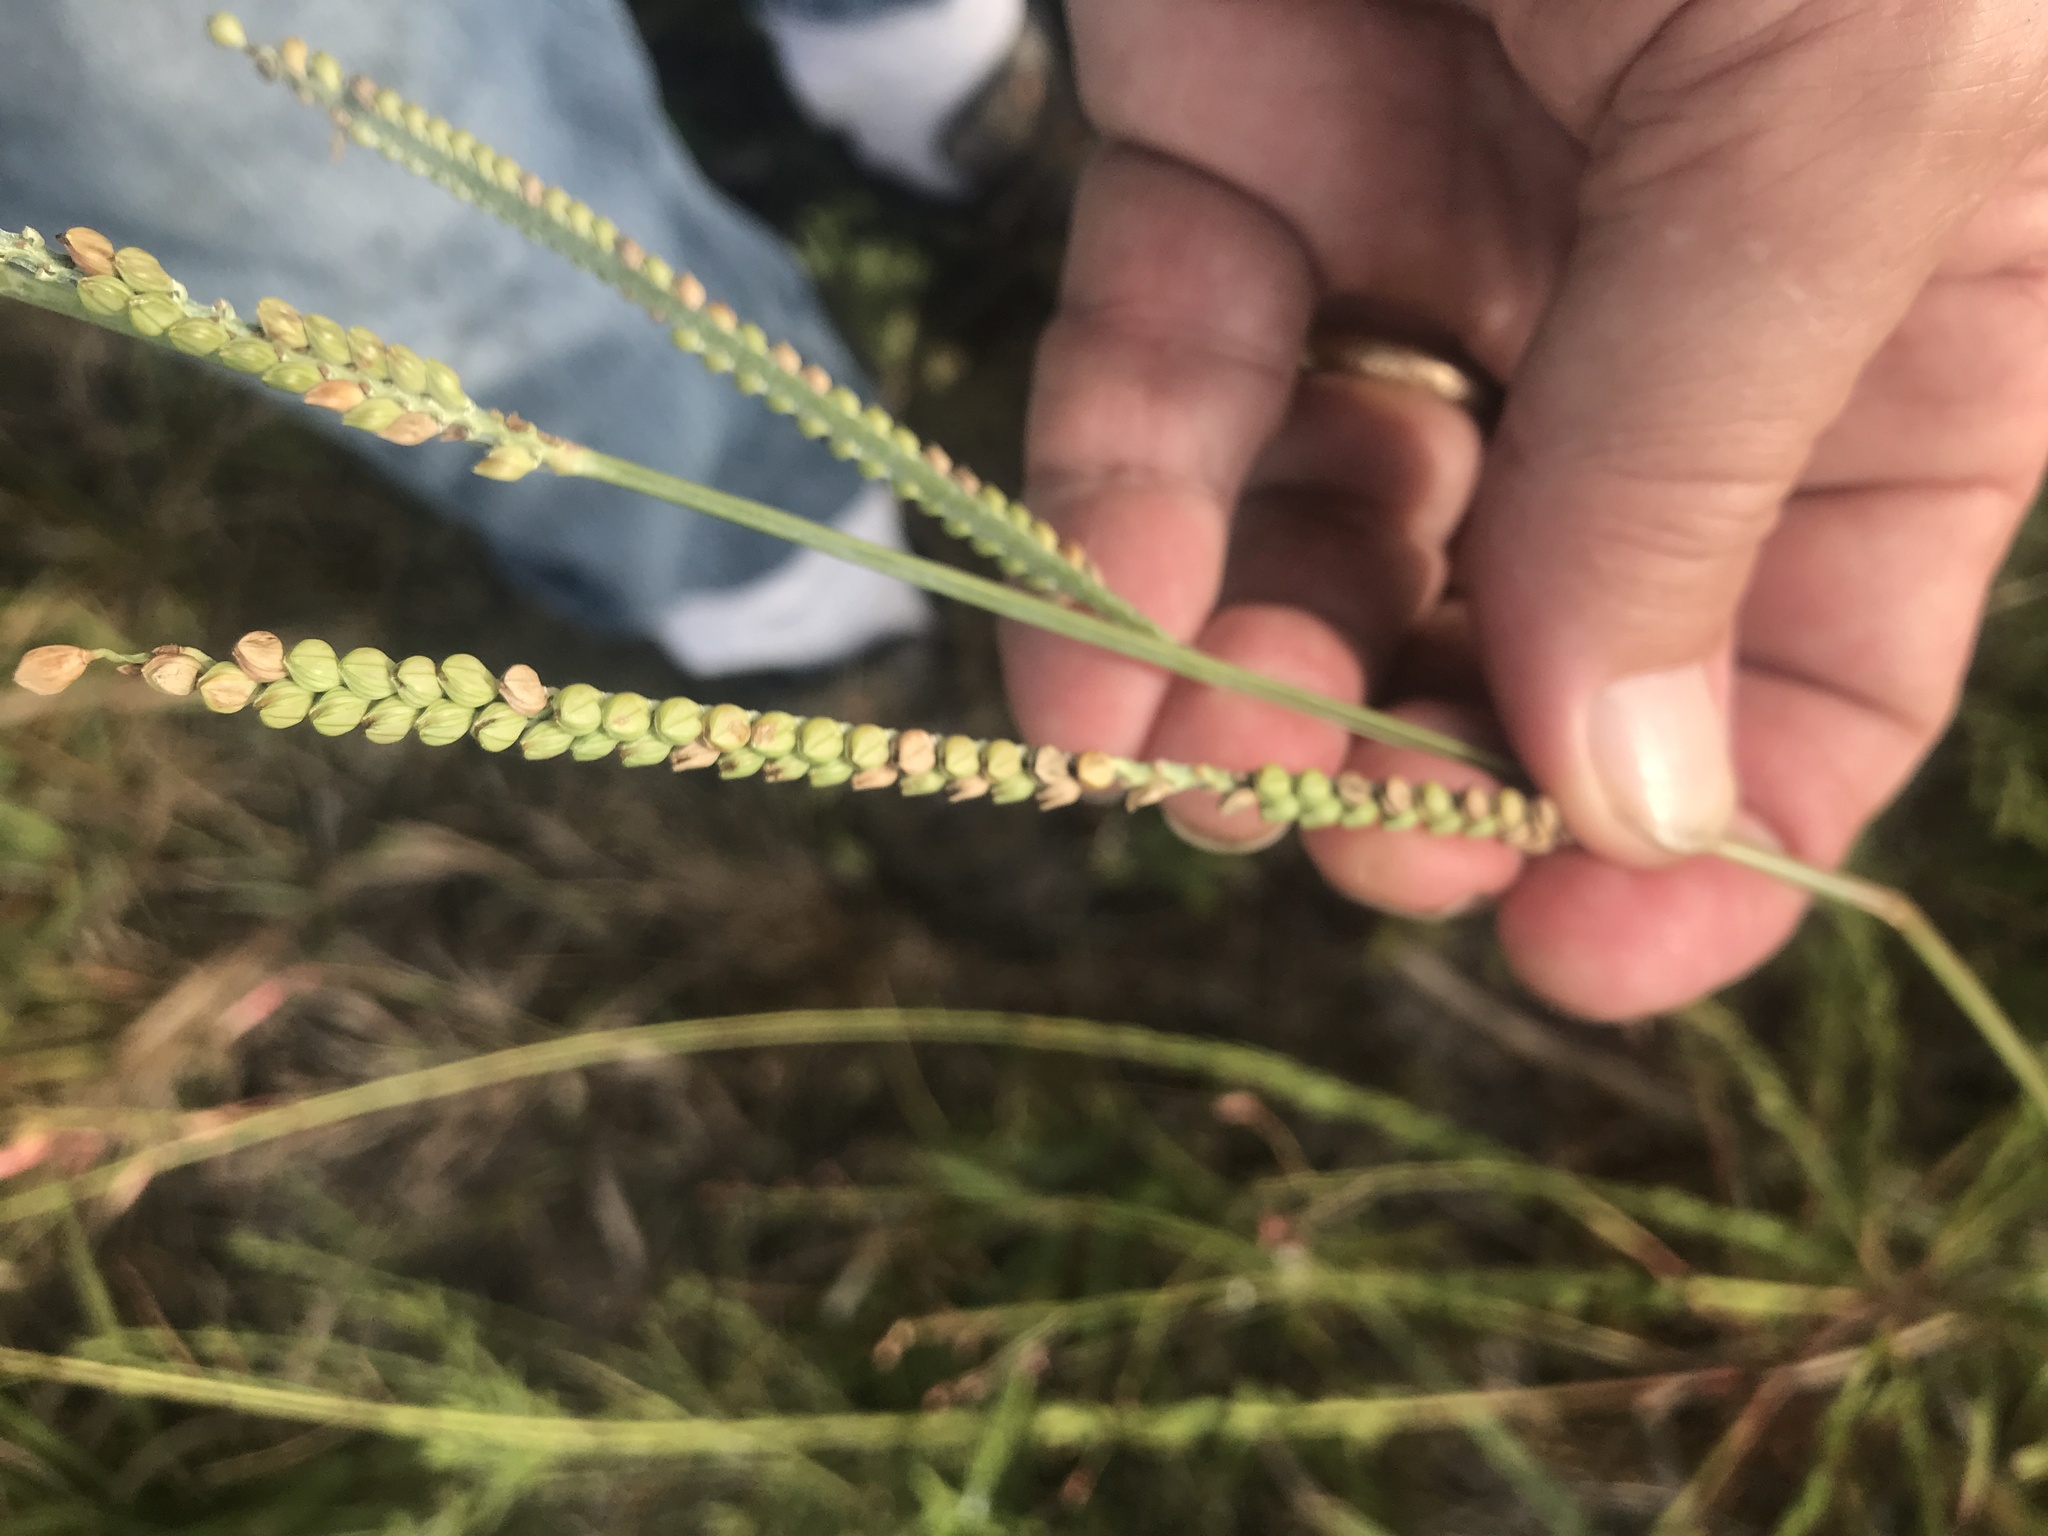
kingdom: Plantae
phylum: Tracheophyta
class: Liliopsida
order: Poales
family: Poaceae
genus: Paspalum
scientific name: Paspalum floridanum
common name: Florida paspalum
